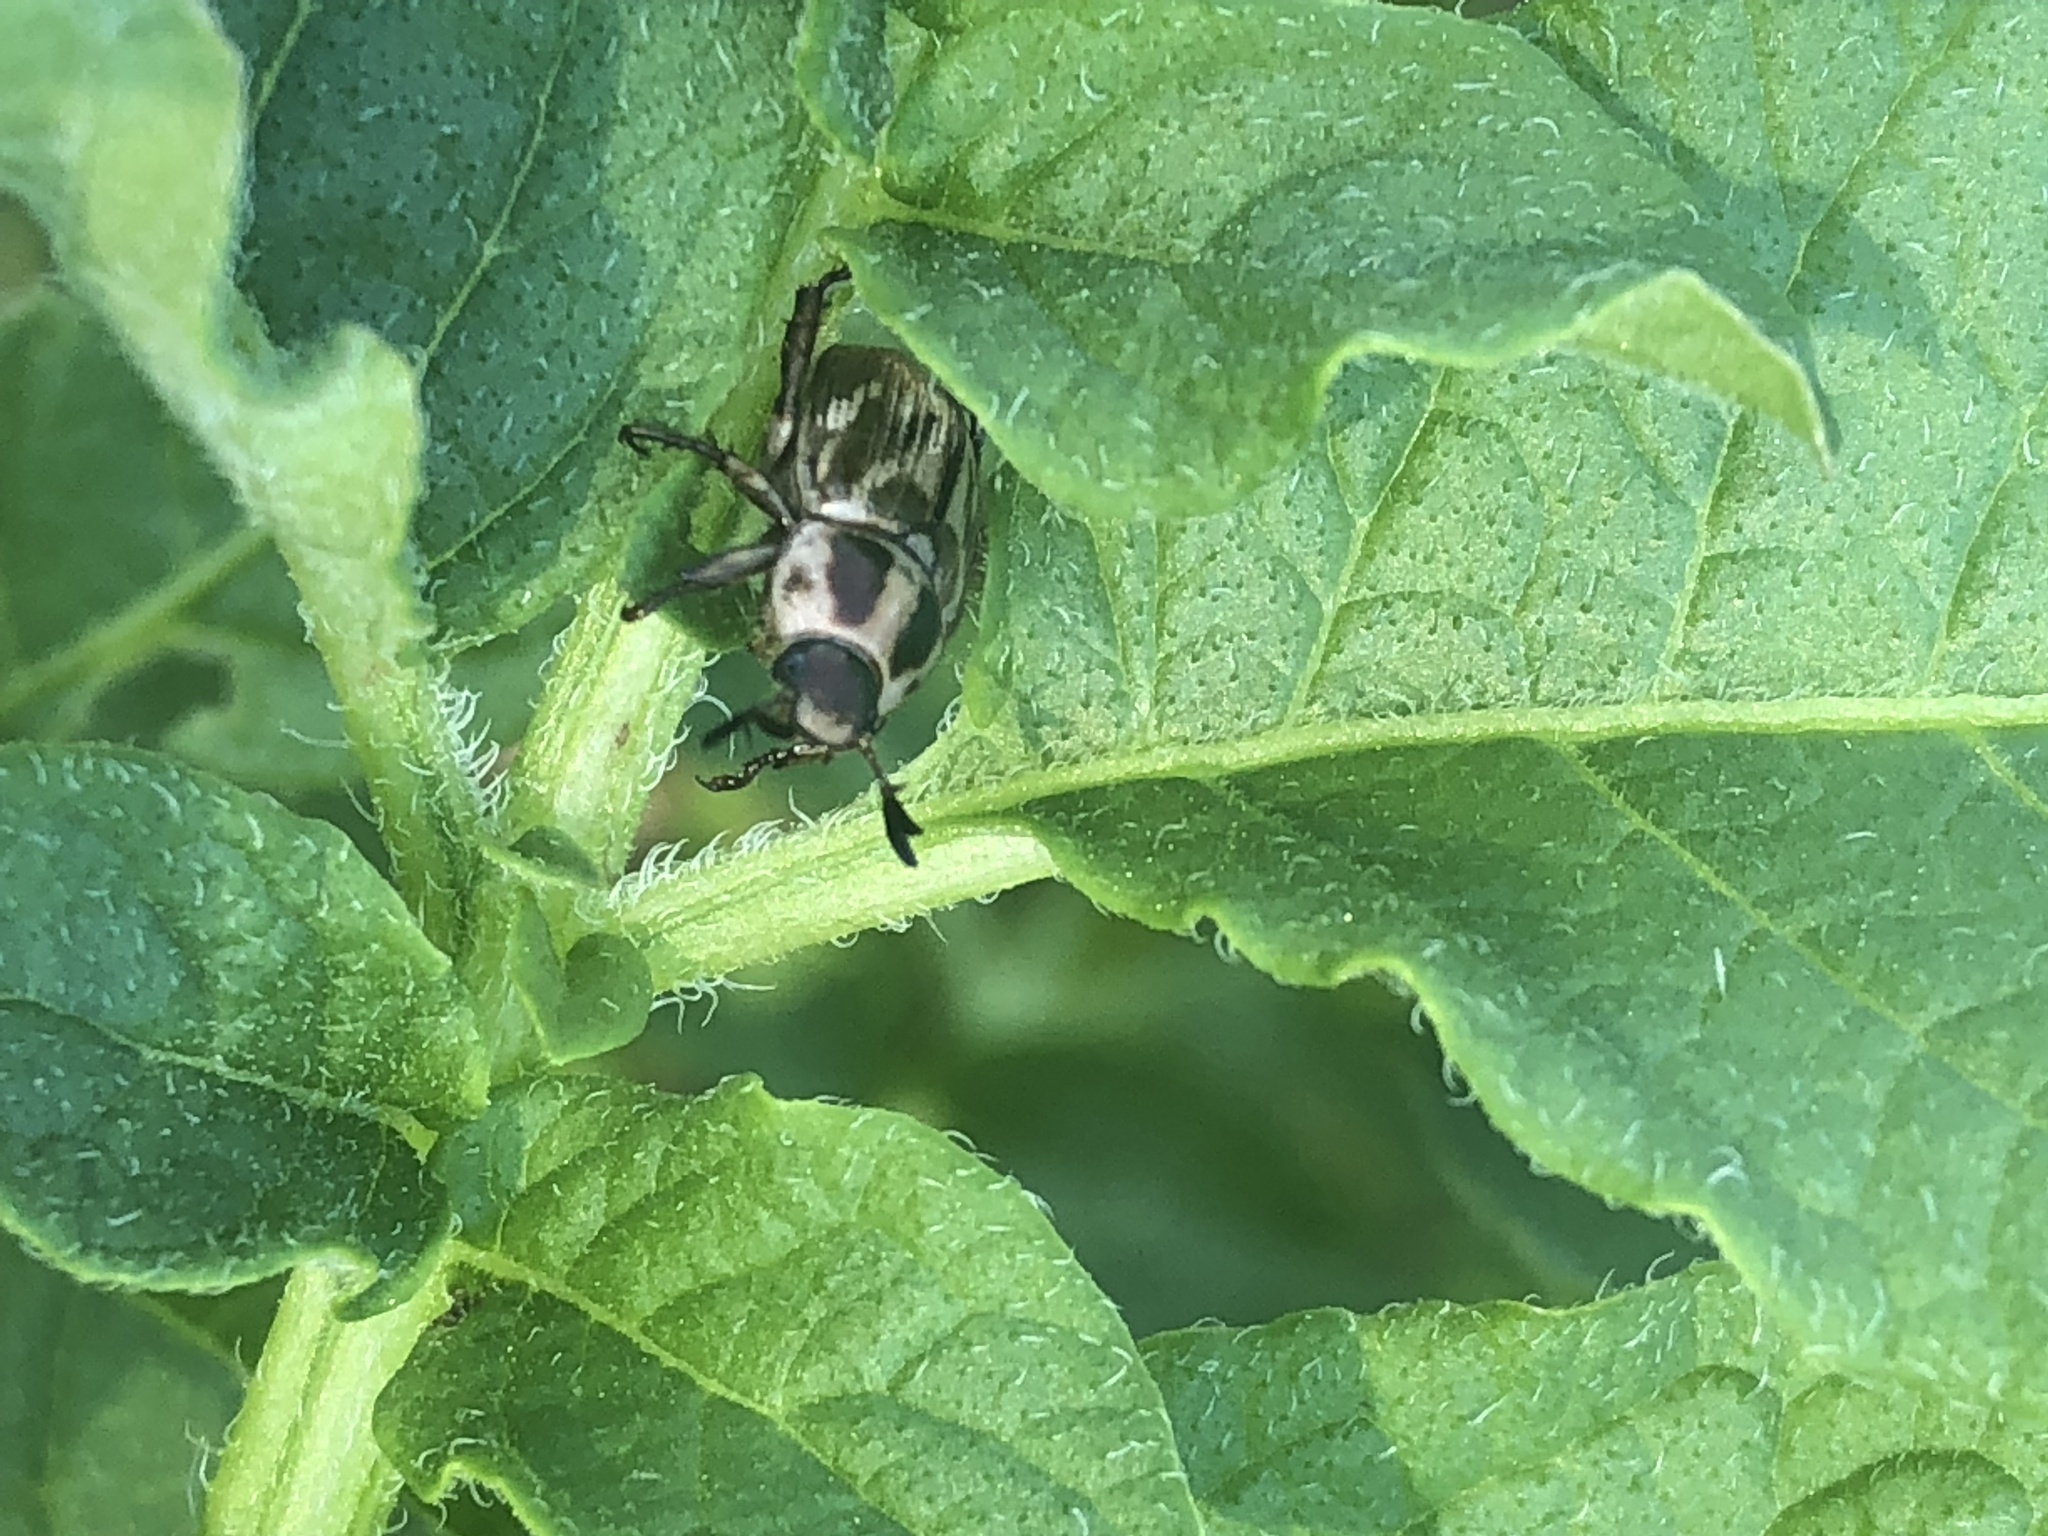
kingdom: Animalia
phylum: Arthropoda
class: Insecta
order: Coleoptera
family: Scarabaeidae
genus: Exomala
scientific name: Exomala orientalis
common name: Oriental beetle
